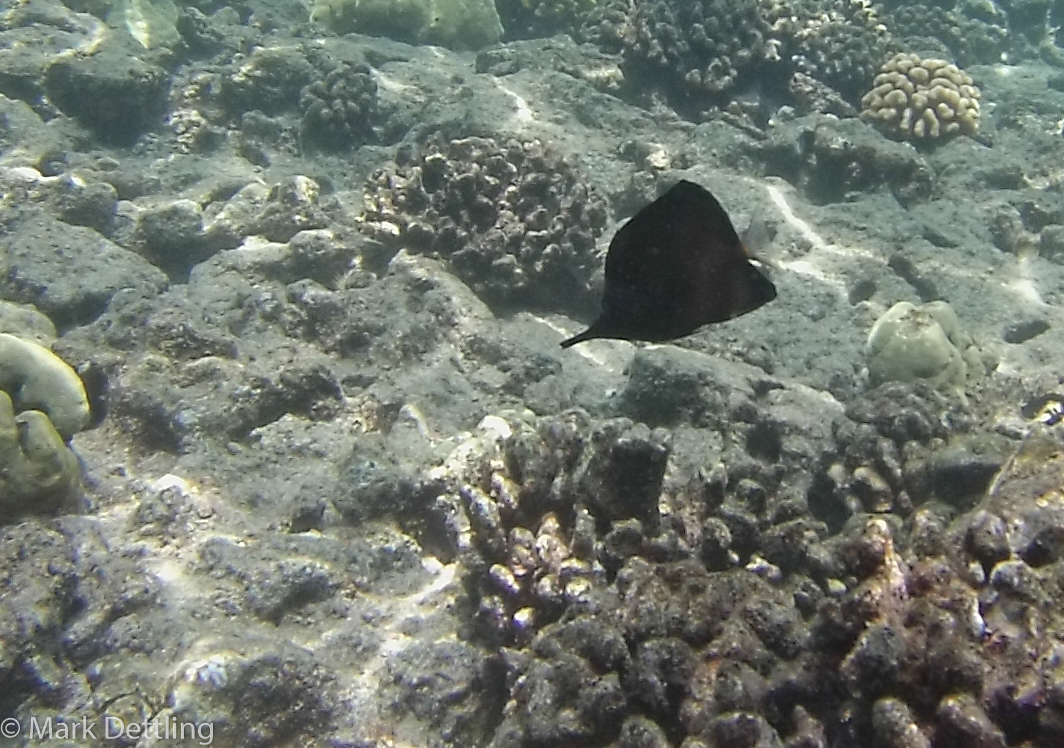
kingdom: Animalia
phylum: Chordata
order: Perciformes
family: Chaetodontidae
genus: Forcipiger
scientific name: Forcipiger longirostris
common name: Longnose butterflyfish
